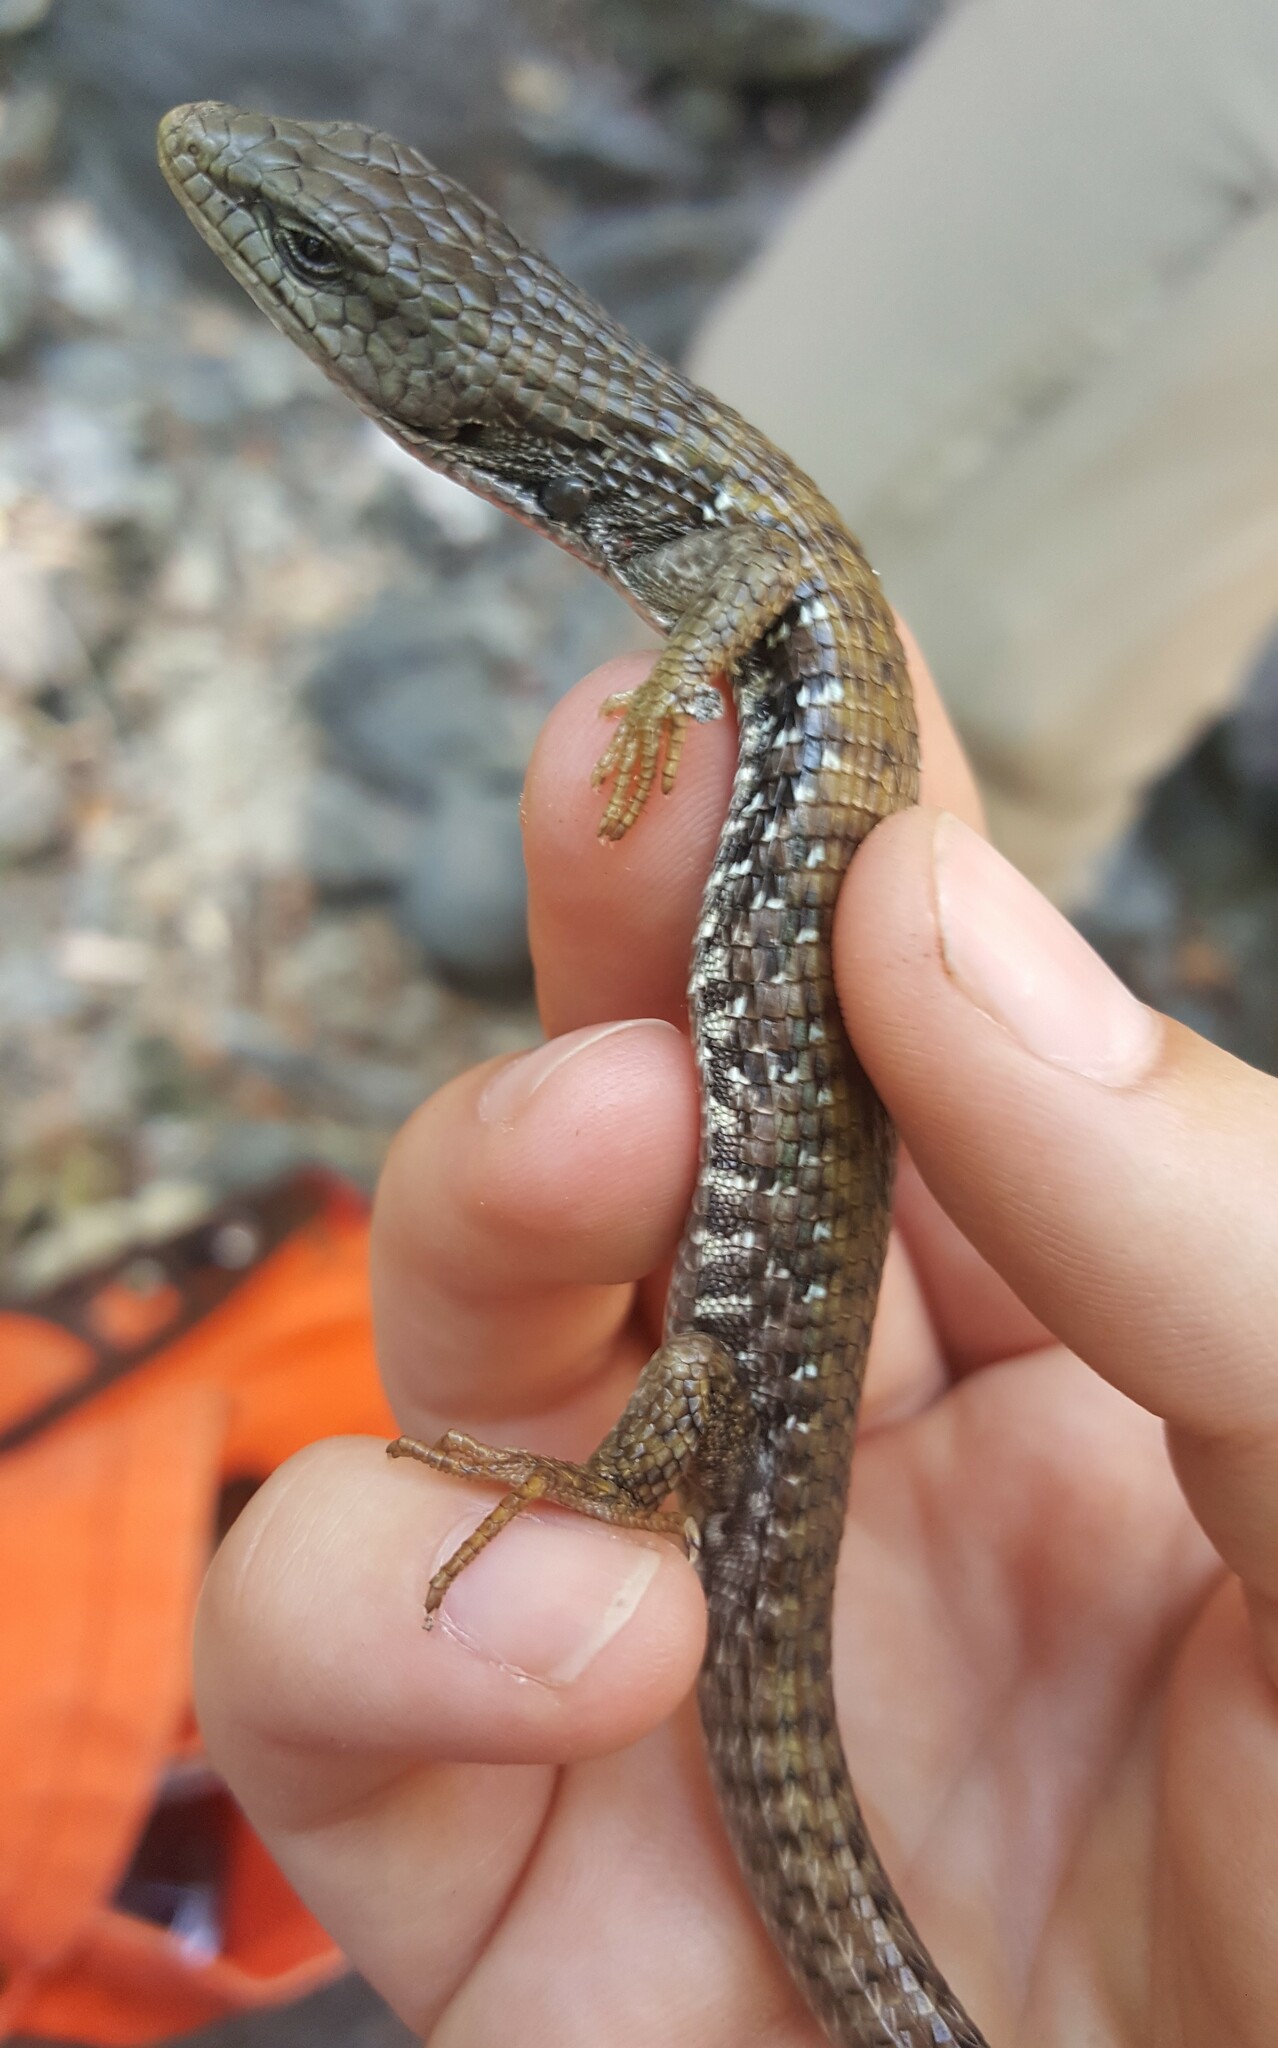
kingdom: Animalia
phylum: Chordata
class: Squamata
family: Anguidae
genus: Elgaria
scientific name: Elgaria coerulea
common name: Northern alligator lizard
